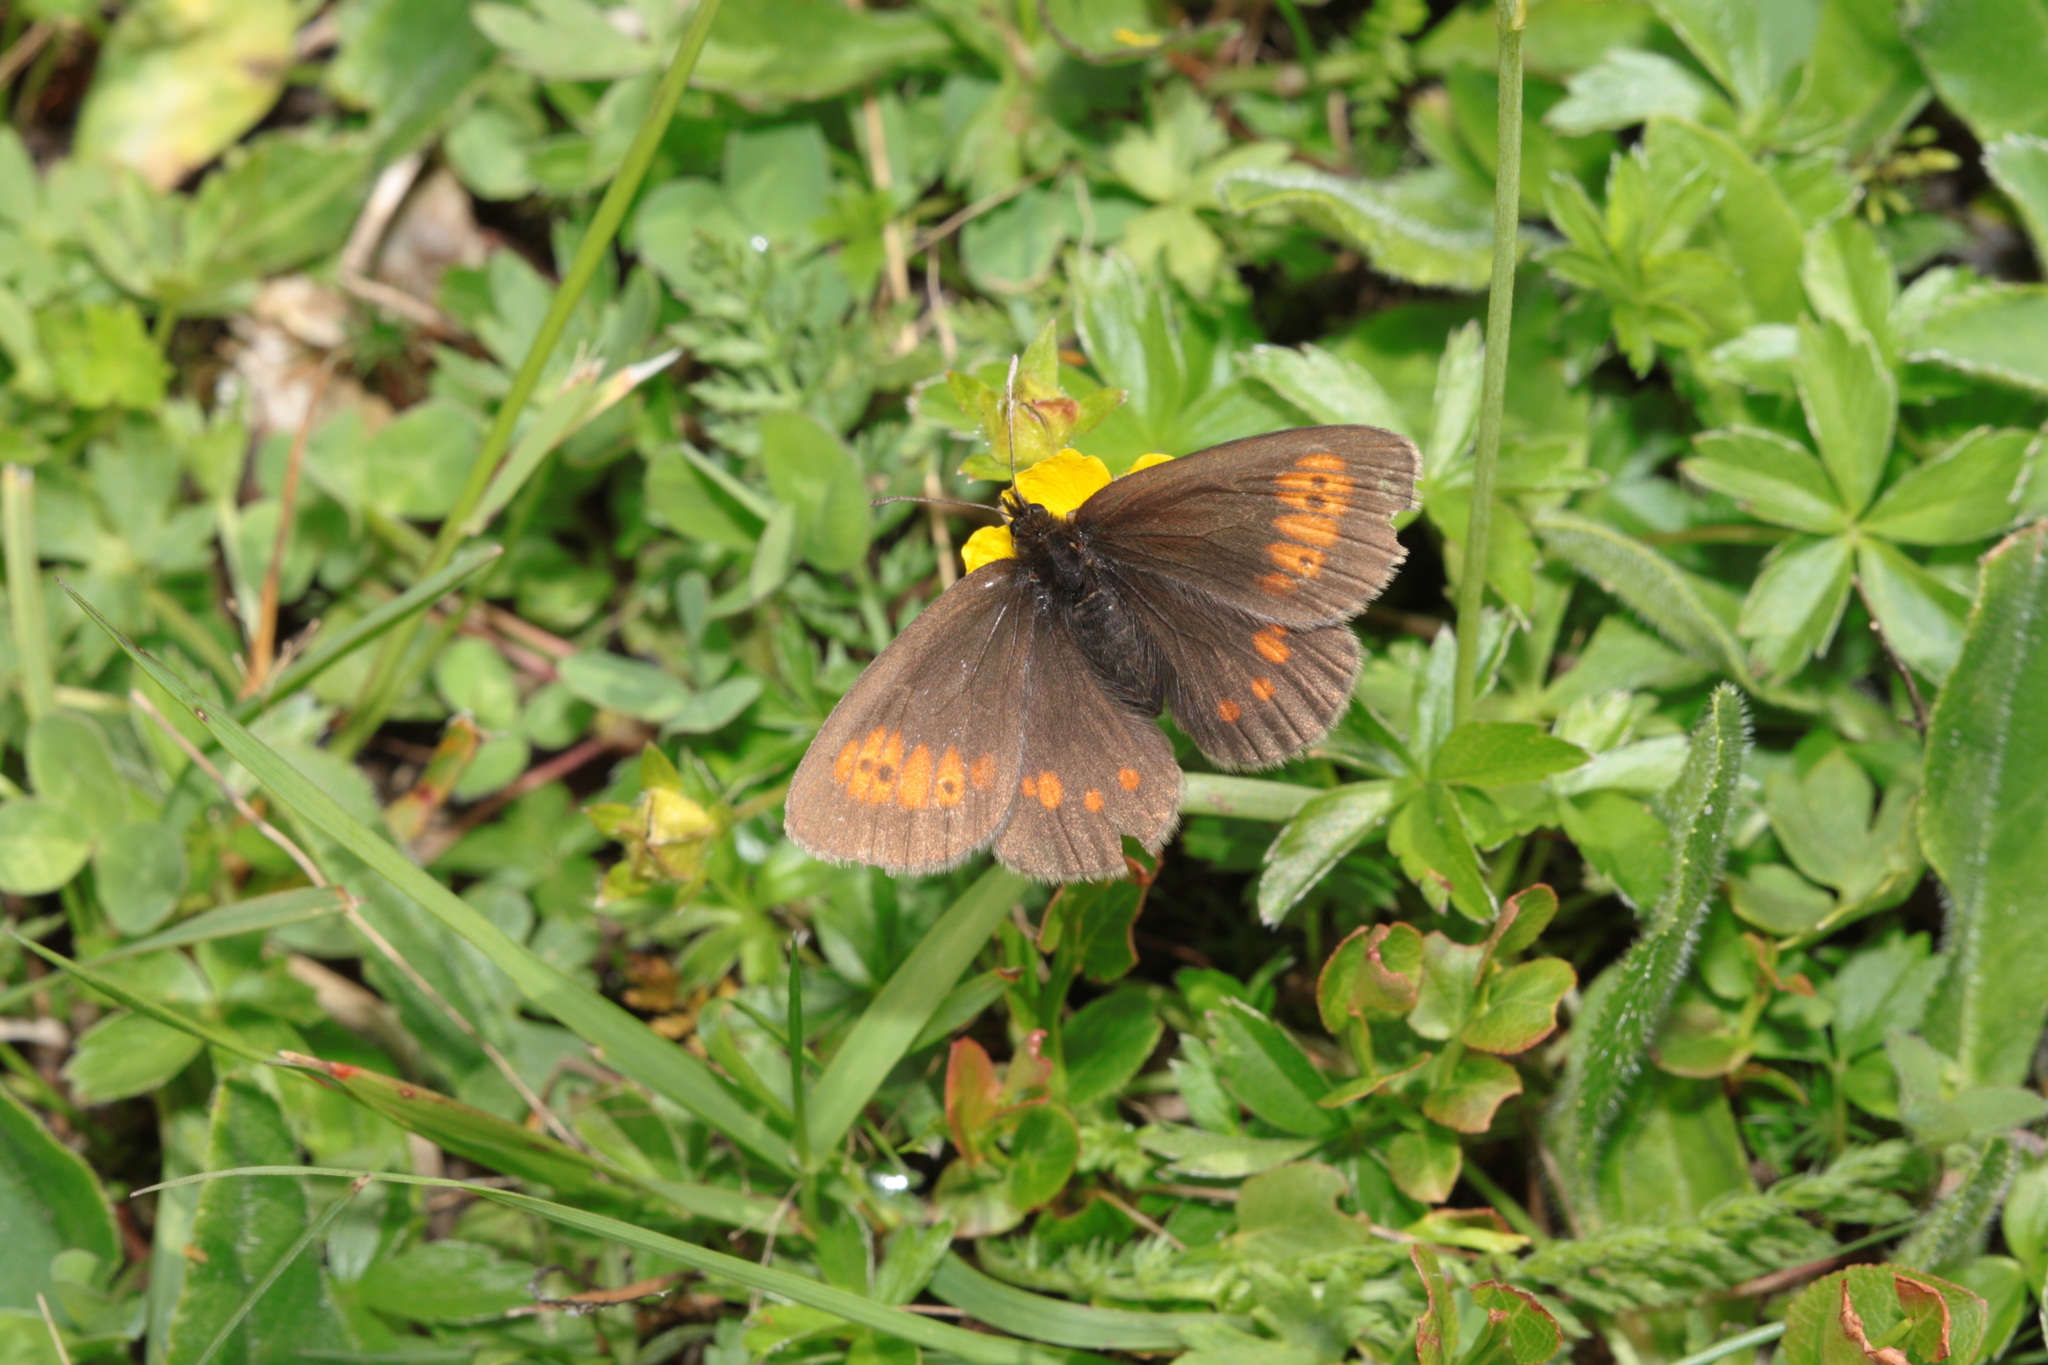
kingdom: Animalia
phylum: Arthropoda
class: Insecta
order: Lepidoptera
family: Nymphalidae
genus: Erebia
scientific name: Erebia eriphyle
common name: Eriphyle ringlet
